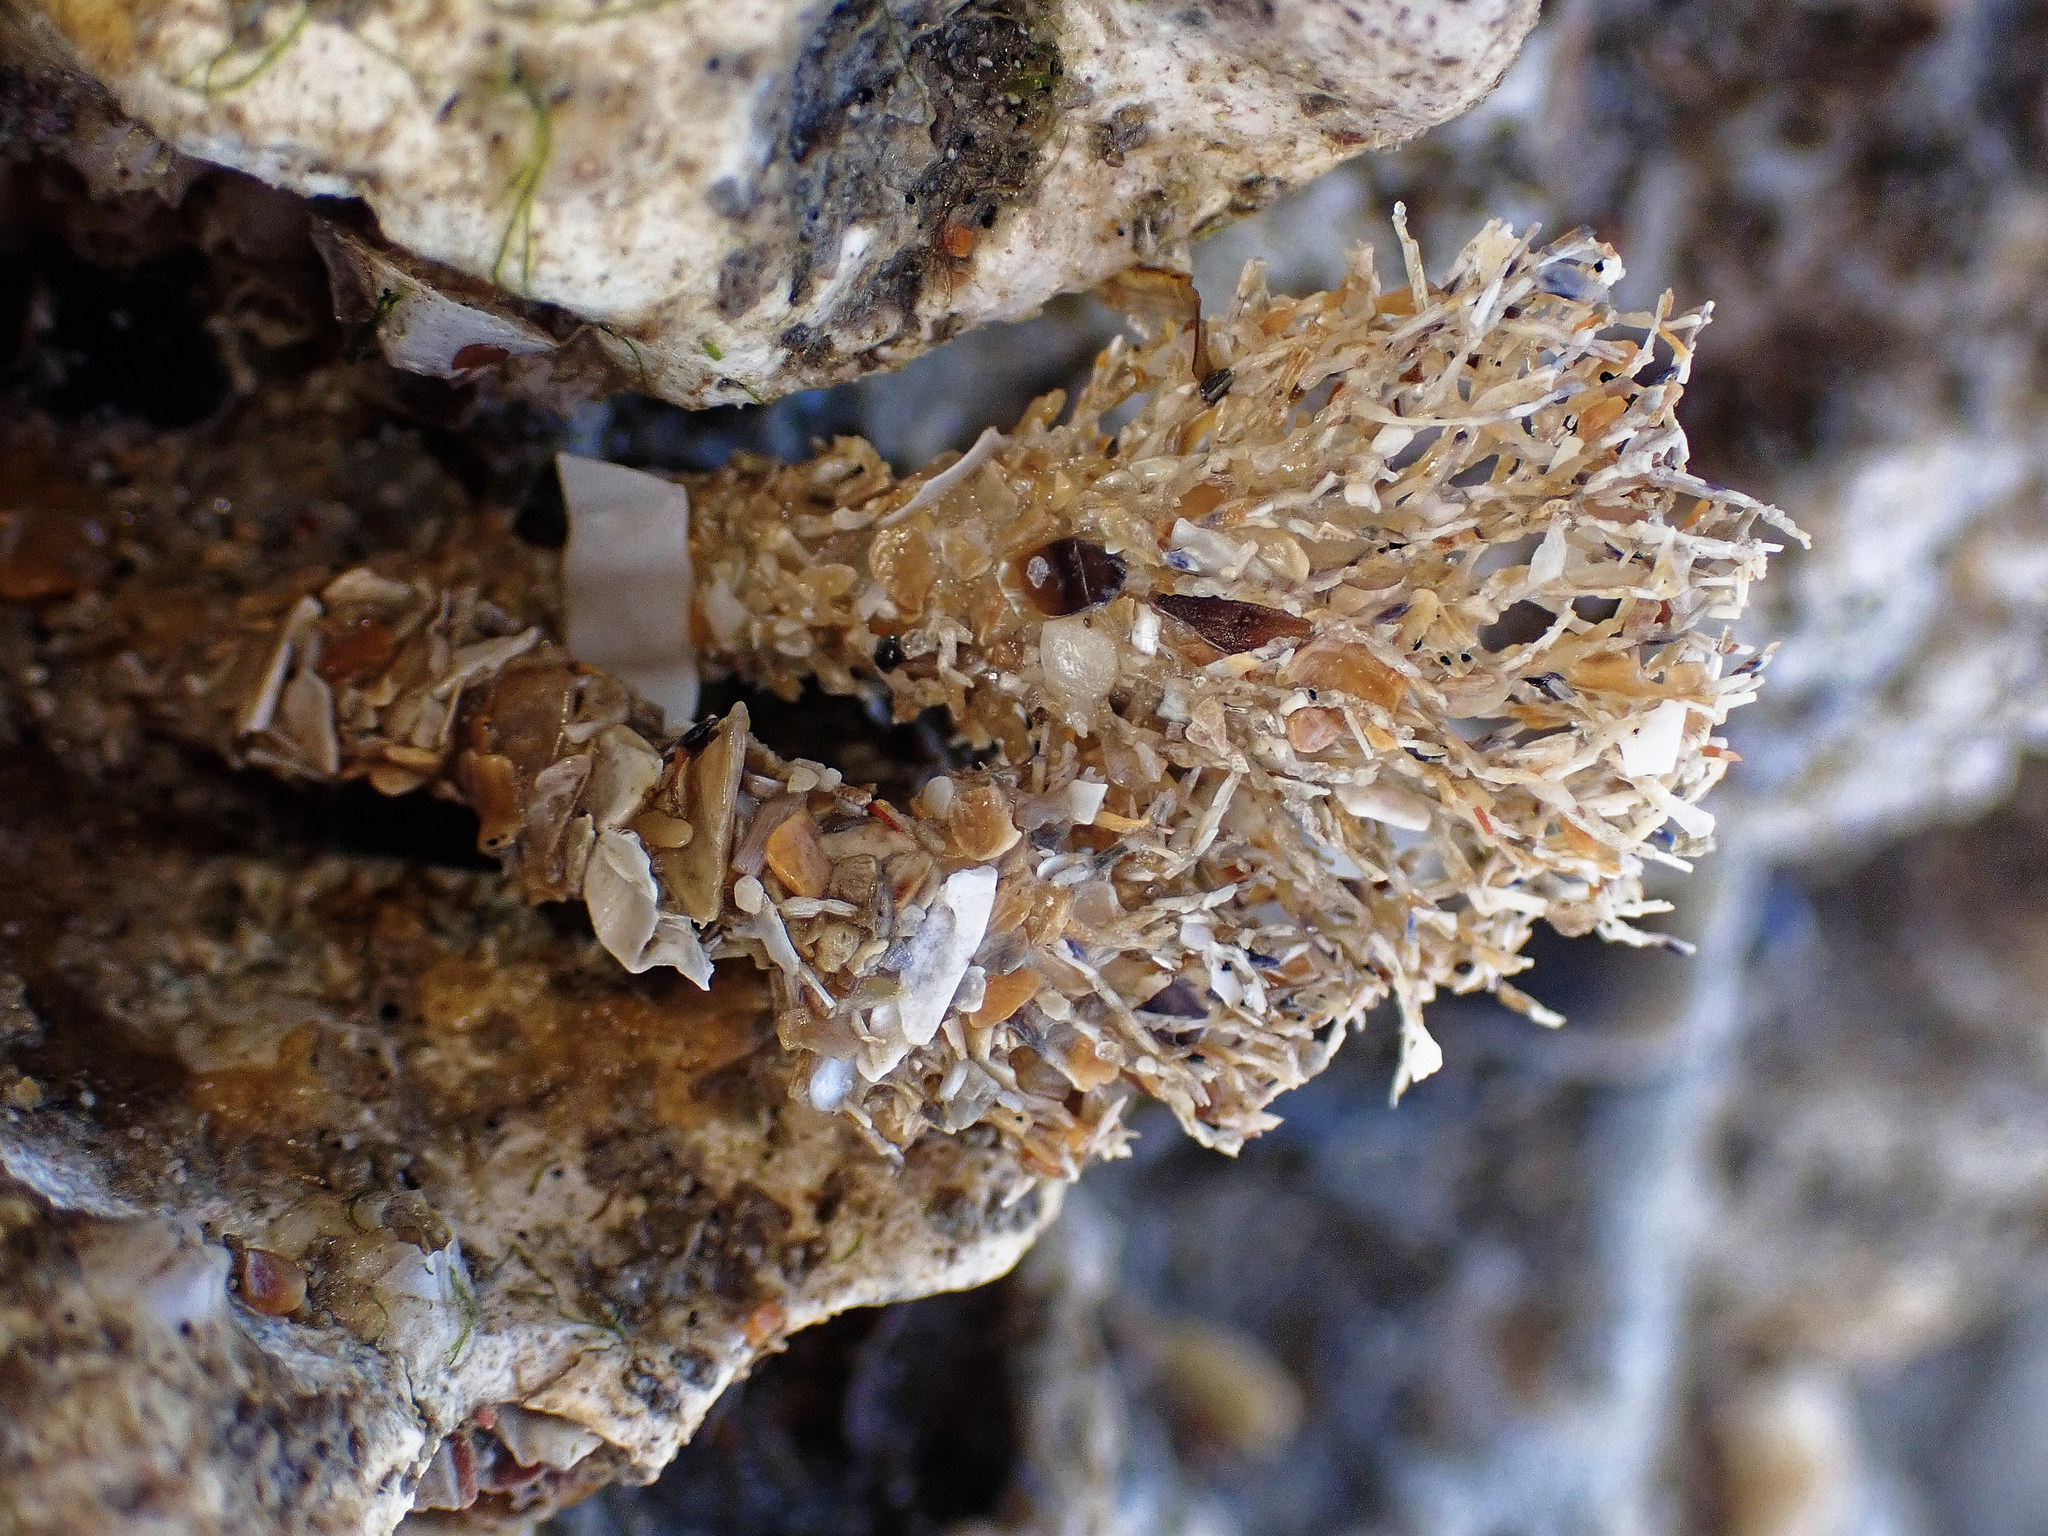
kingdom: Animalia
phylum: Annelida
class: Polychaeta
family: Terebellidae
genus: Lanice
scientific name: Lanice conchilega
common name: Sand mason
